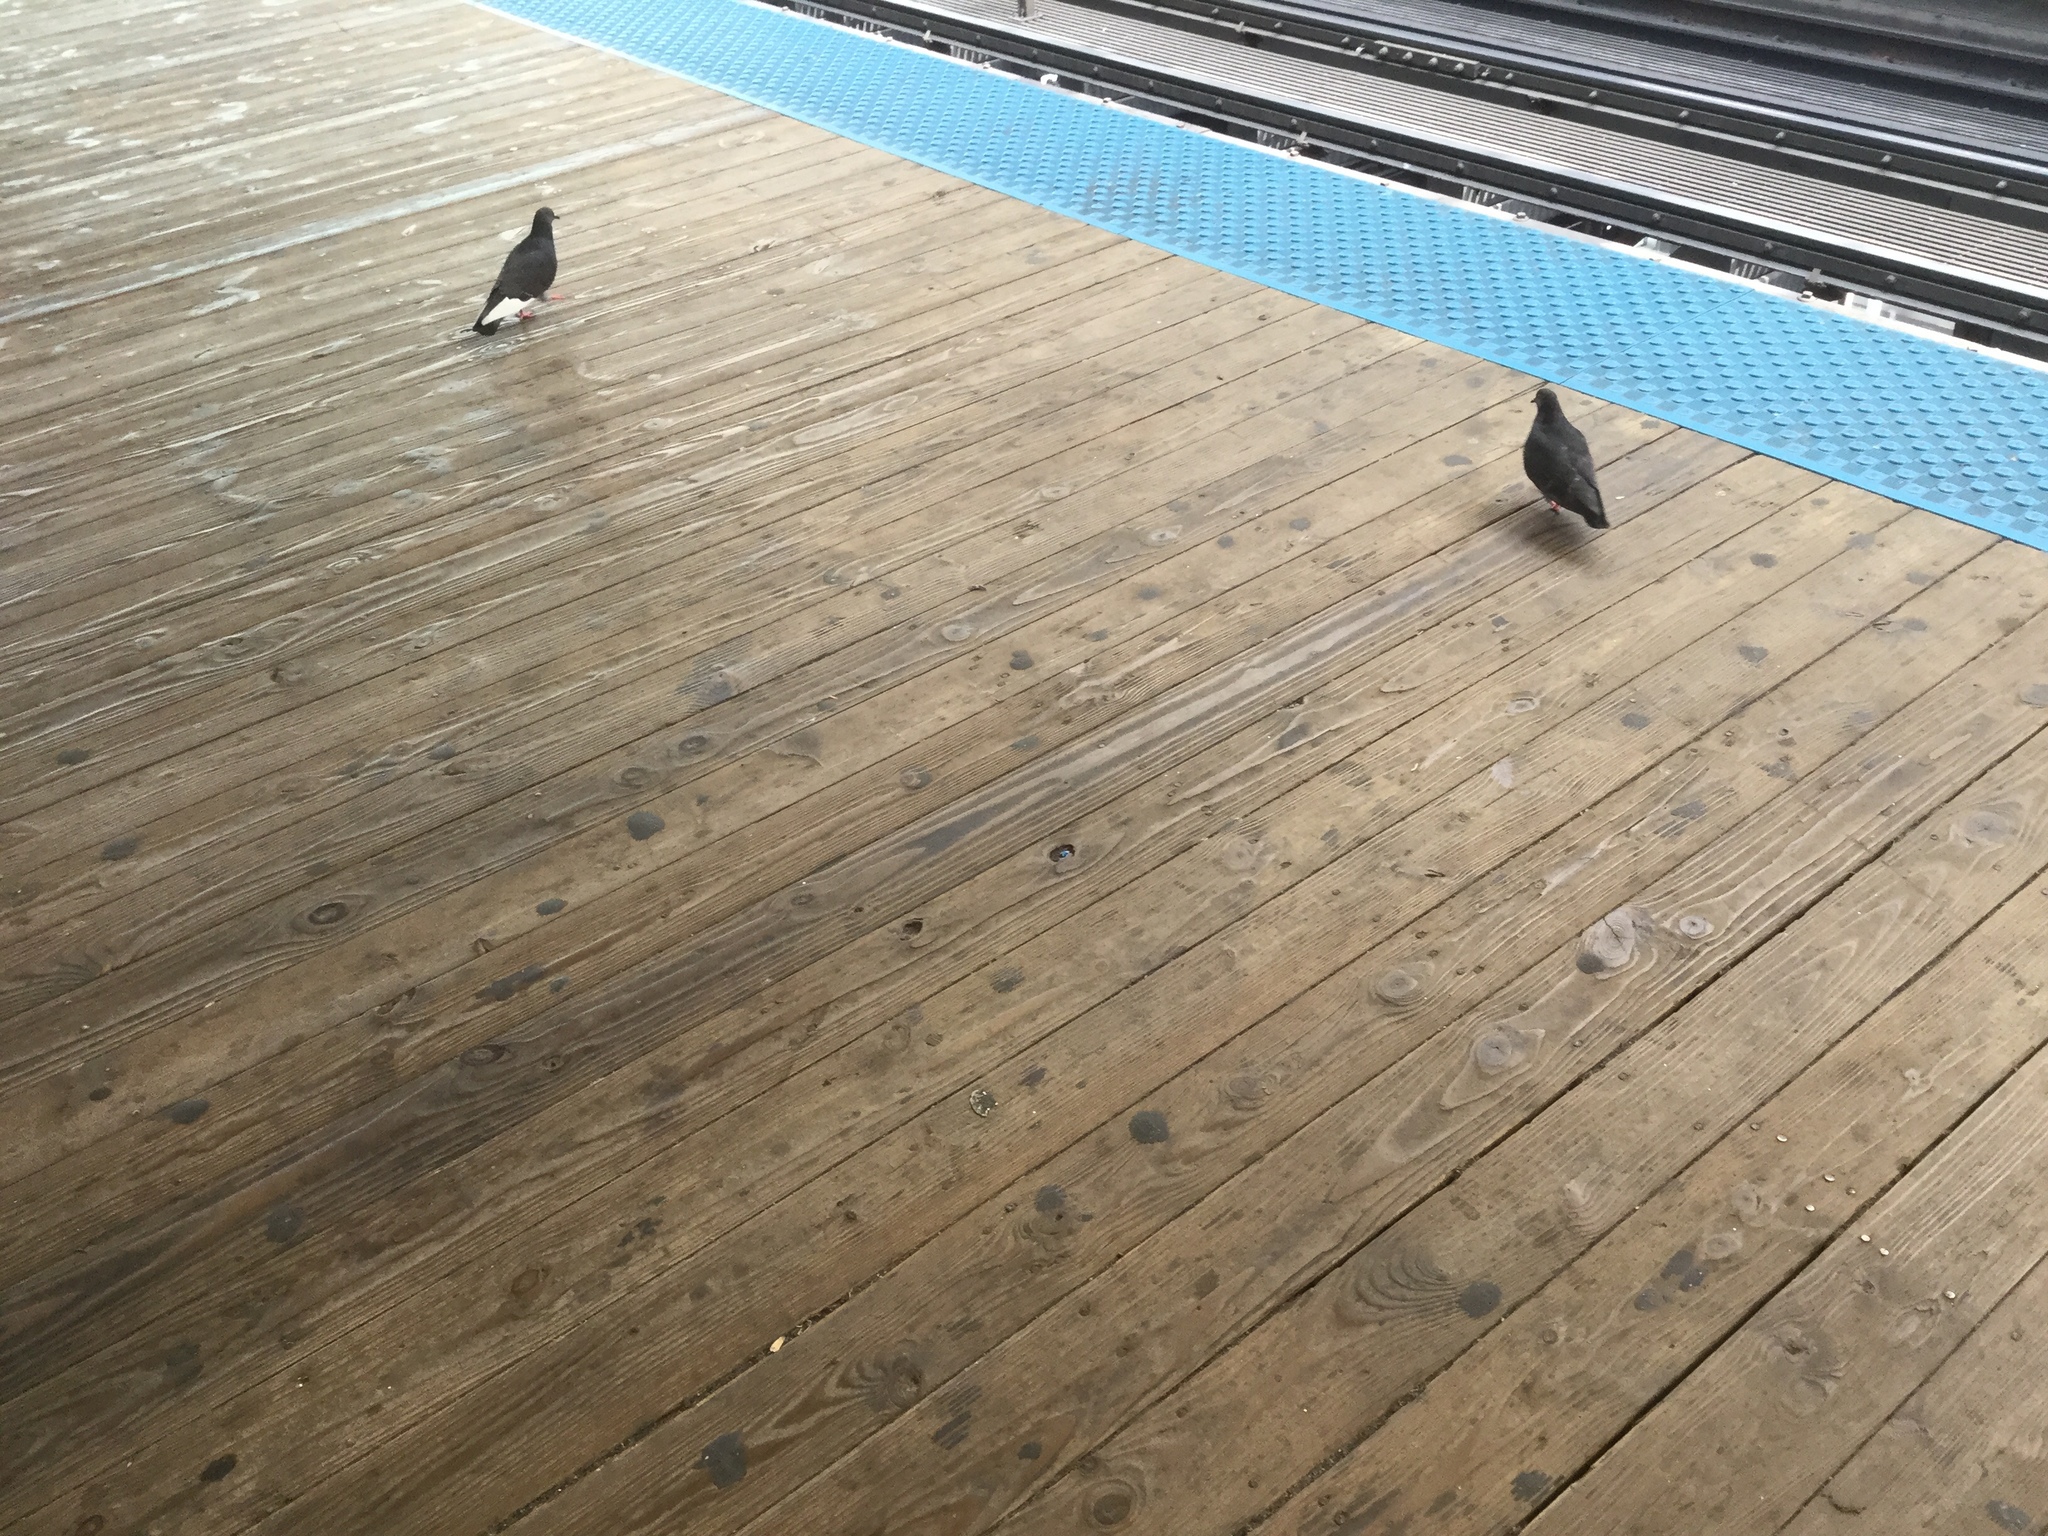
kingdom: Animalia
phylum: Chordata
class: Aves
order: Columbiformes
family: Columbidae
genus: Columba
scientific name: Columba livia
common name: Rock pigeon
